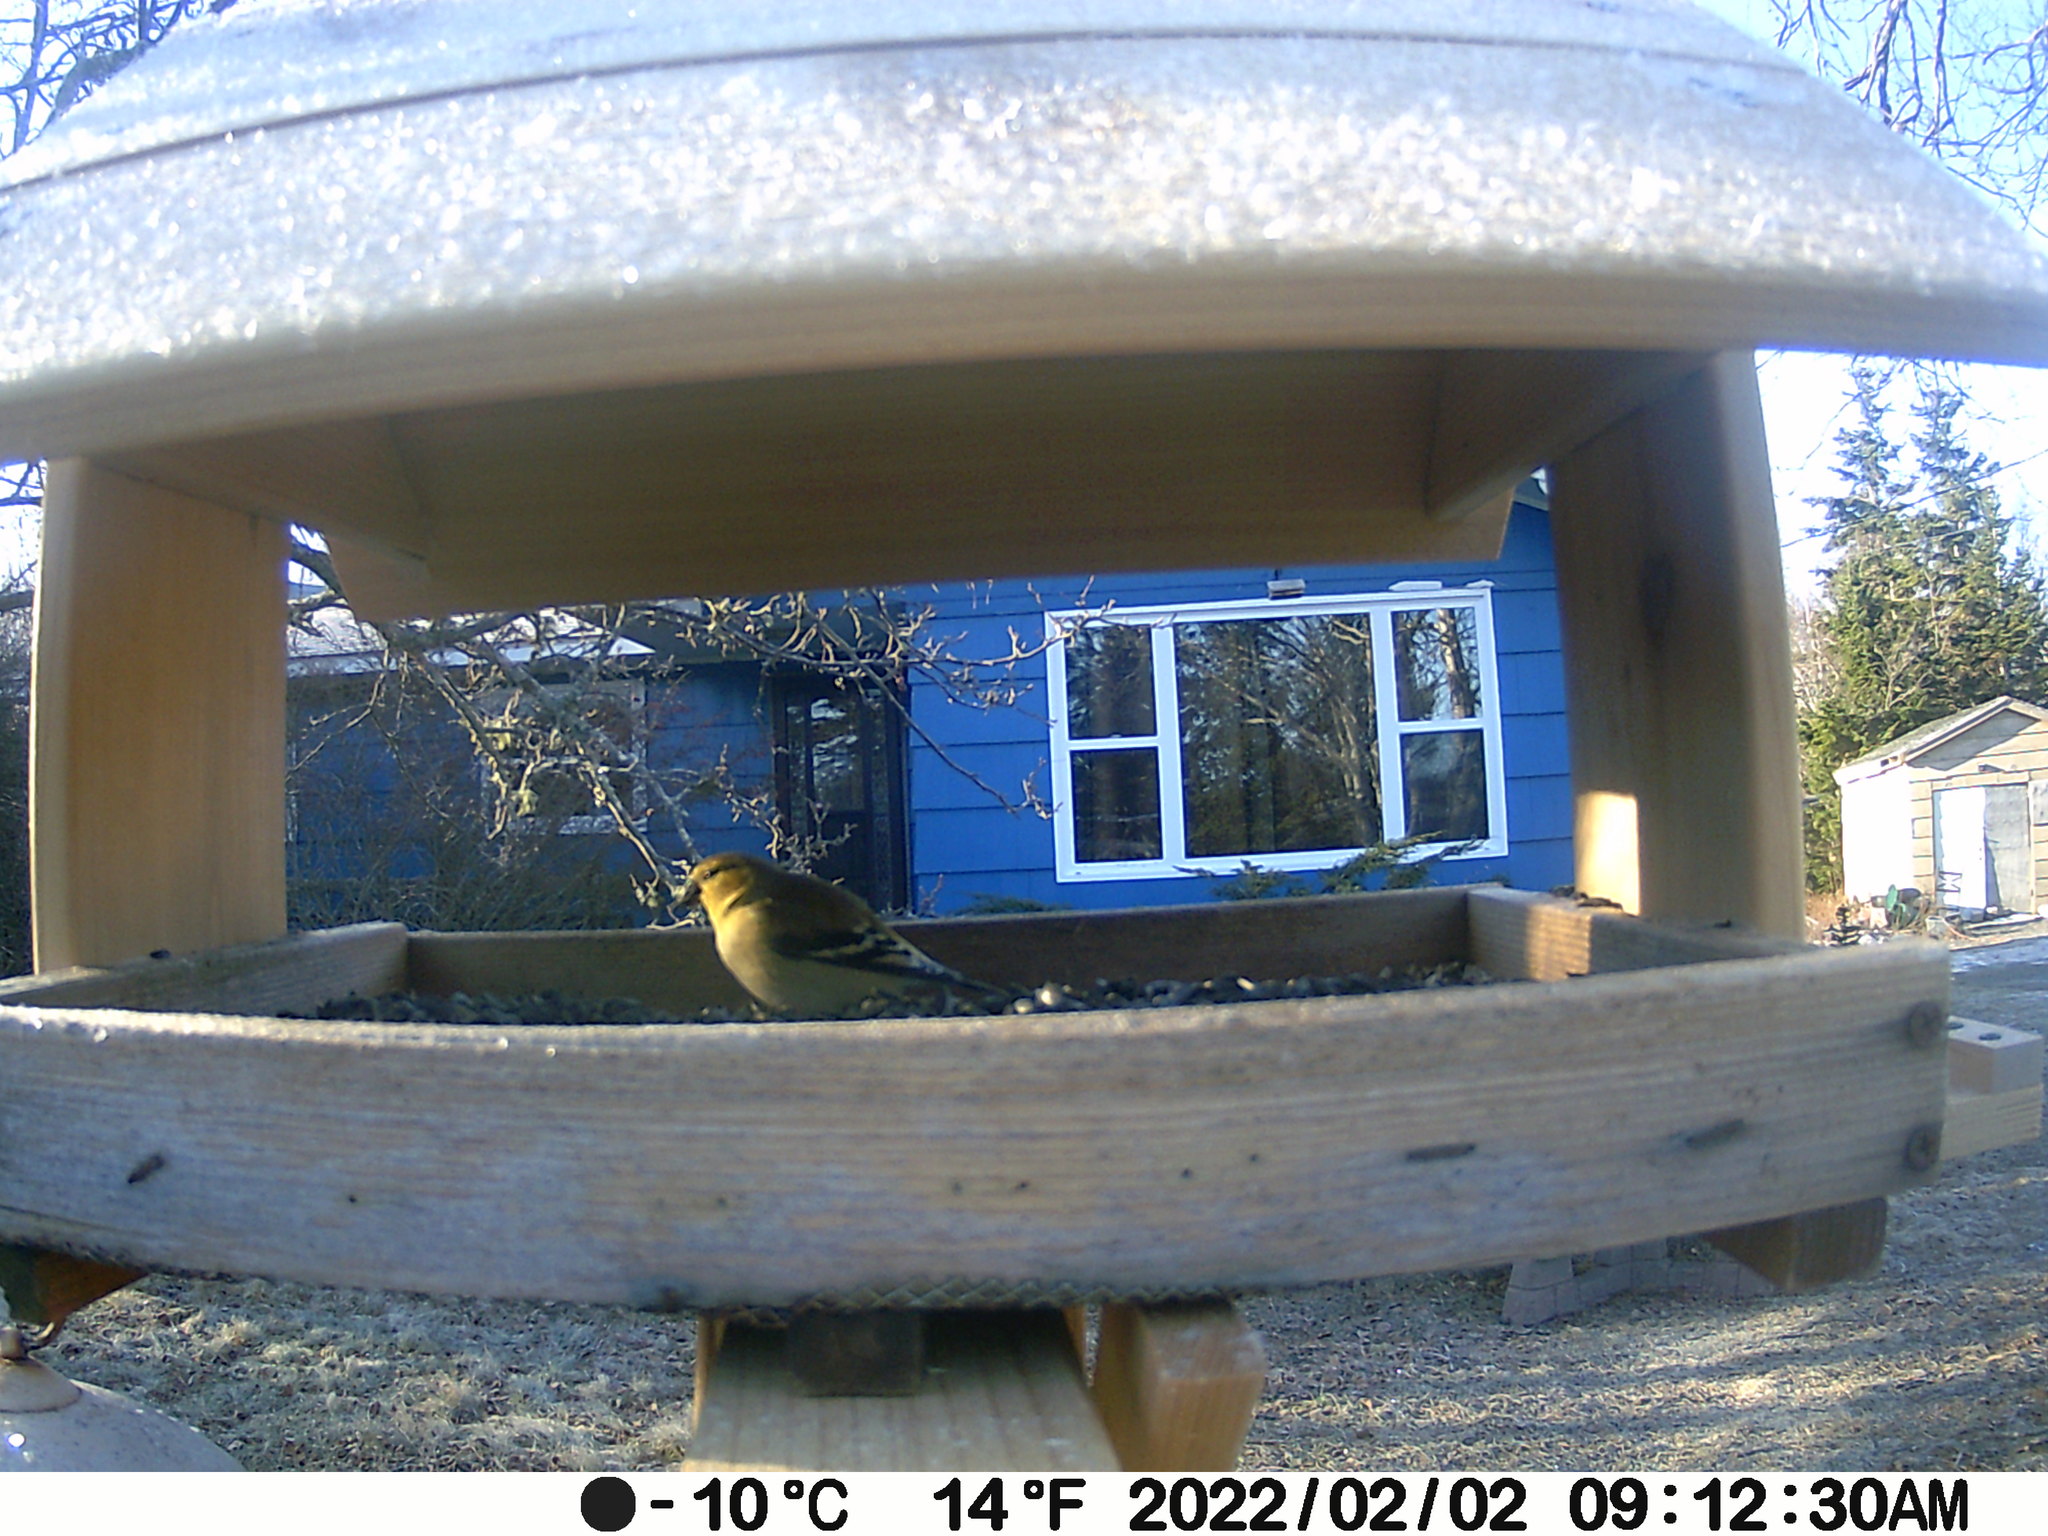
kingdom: Animalia
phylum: Chordata
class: Aves
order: Passeriformes
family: Fringillidae
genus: Spinus
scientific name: Spinus tristis
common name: American goldfinch
